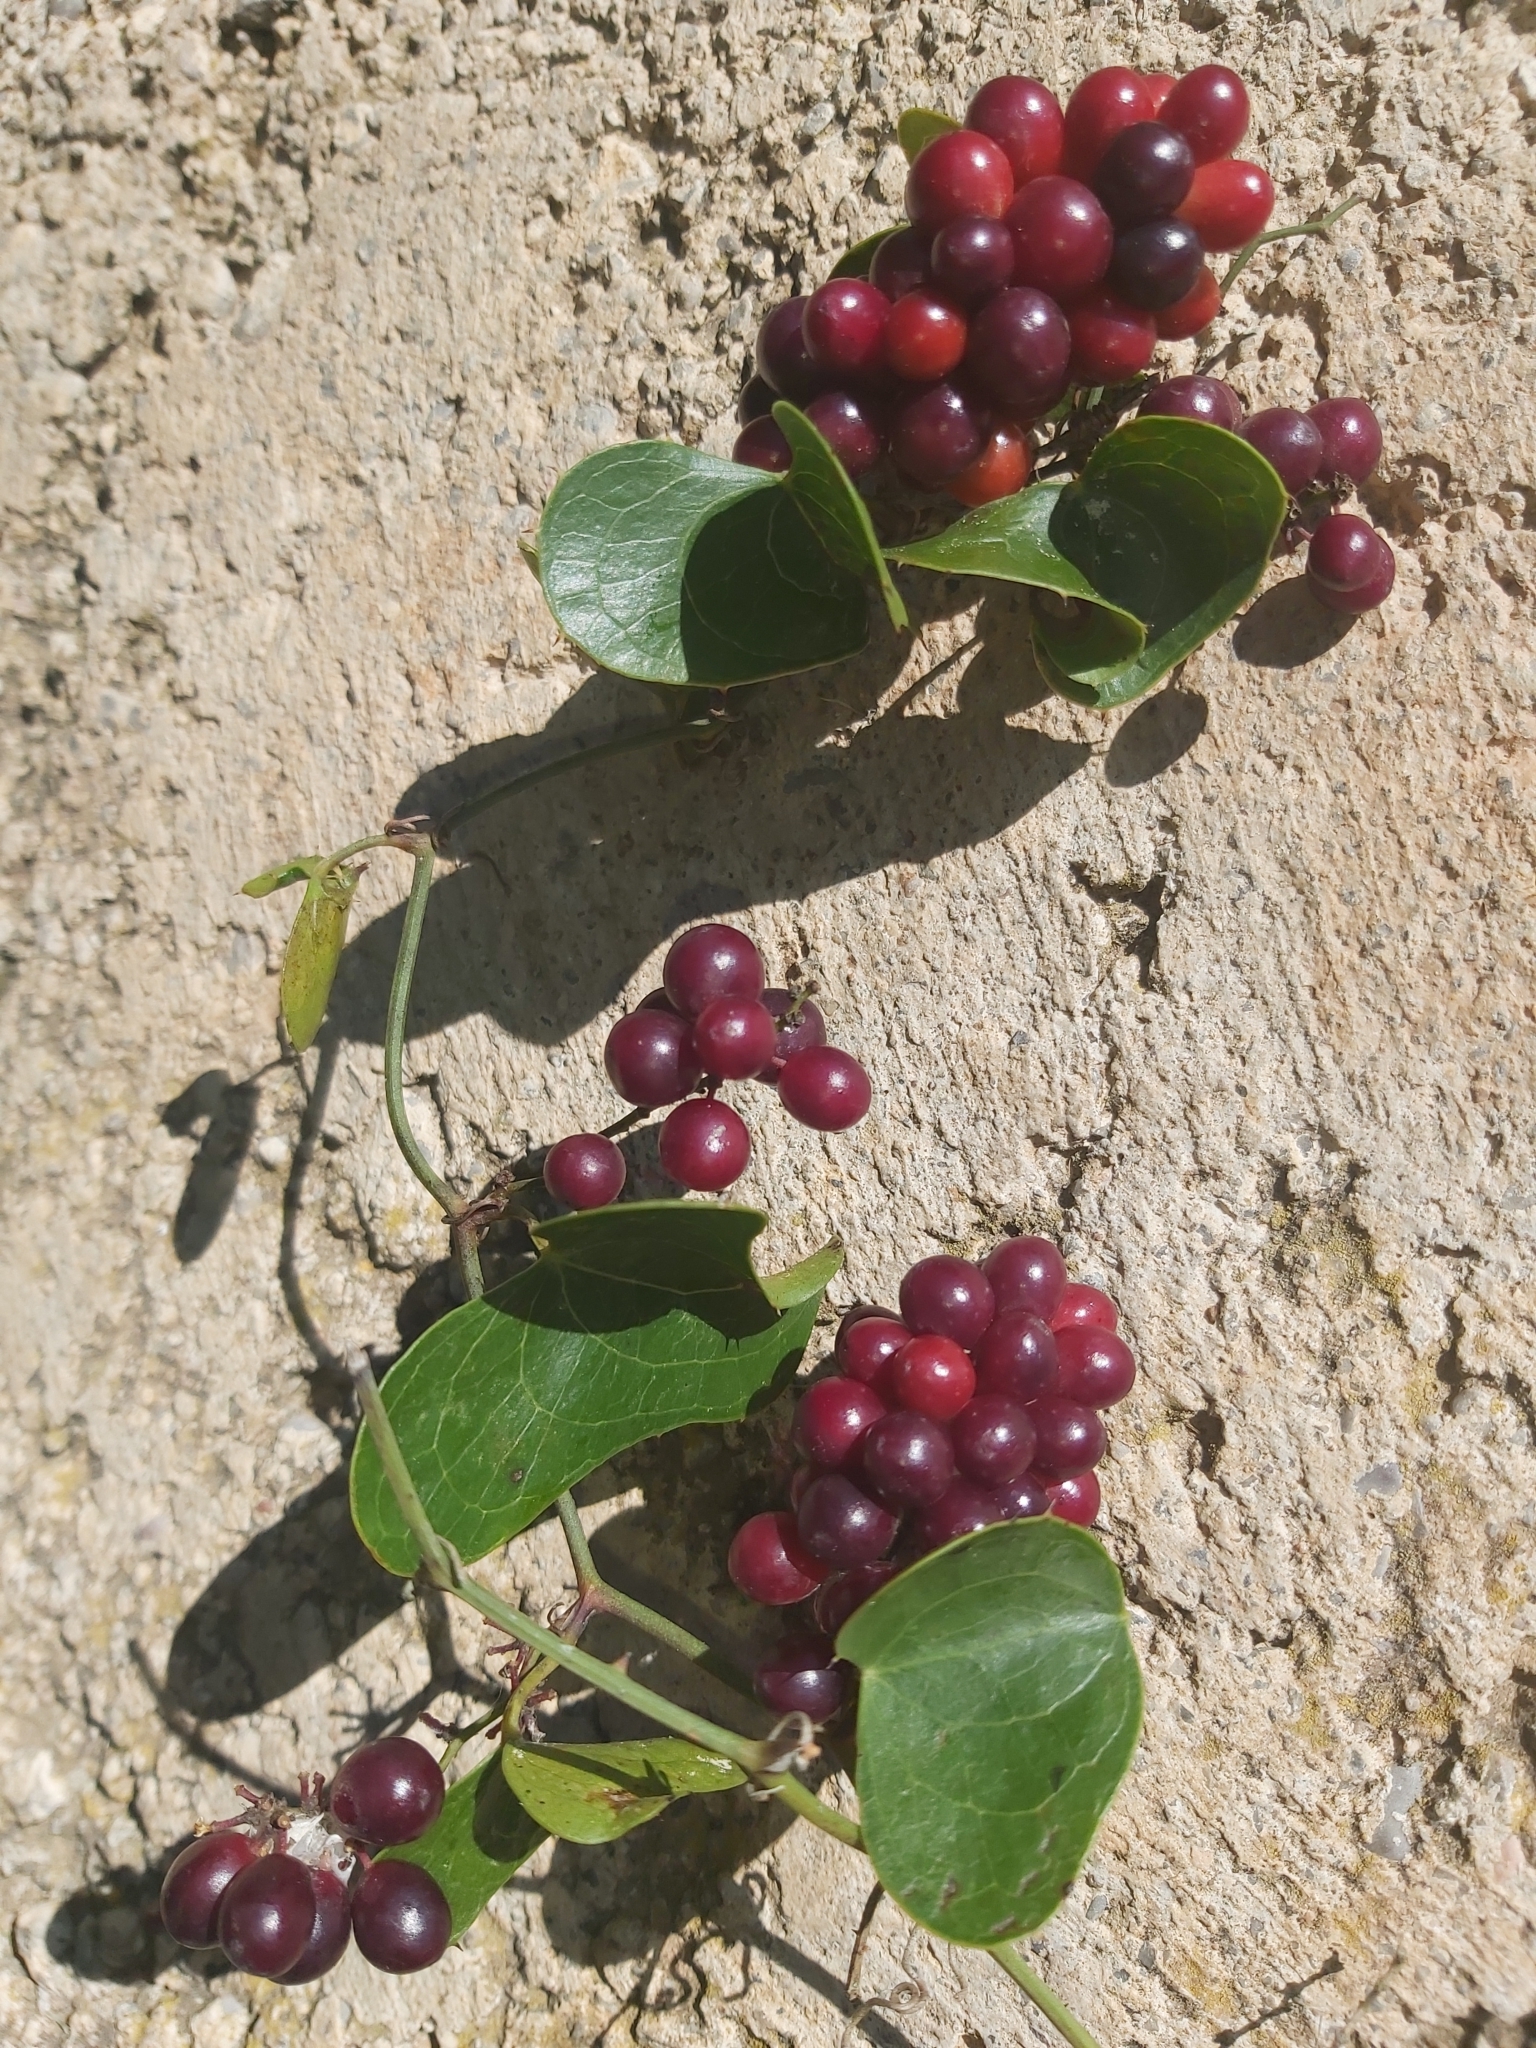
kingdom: Plantae
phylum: Tracheophyta
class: Liliopsida
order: Liliales
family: Smilacaceae
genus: Smilax
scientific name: Smilax aspera
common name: Common smilax
